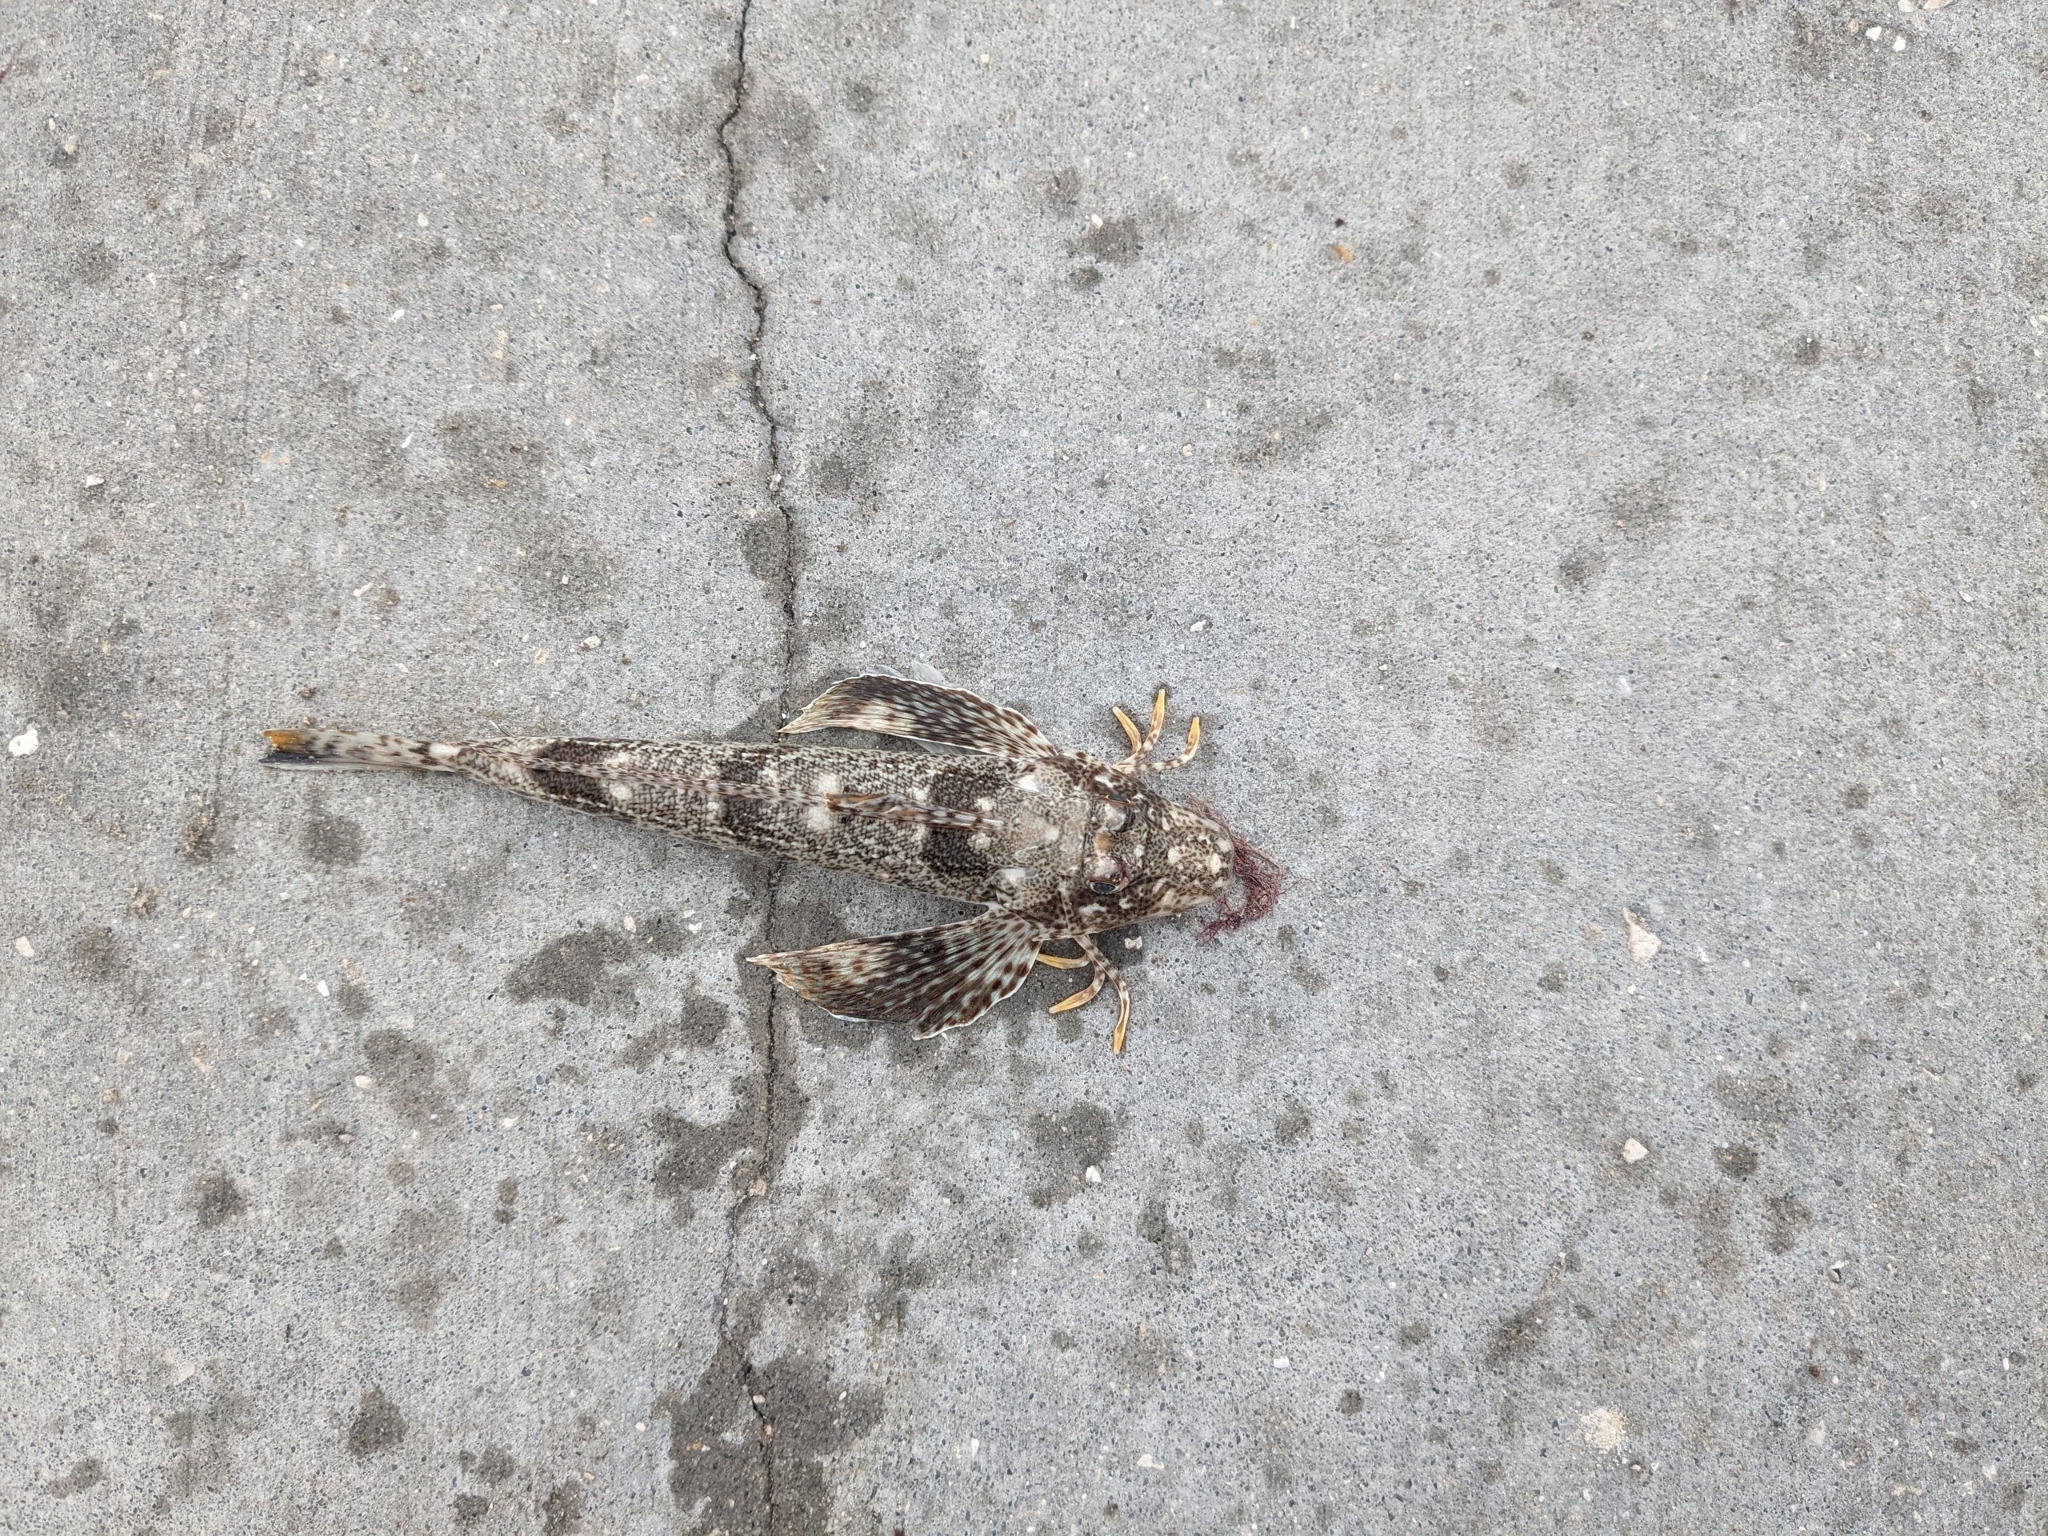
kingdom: Animalia
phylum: Chordata
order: Scorpaeniformes
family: Triglidae
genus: Prionotus
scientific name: Prionotus scitulus
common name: Leopard searobin
